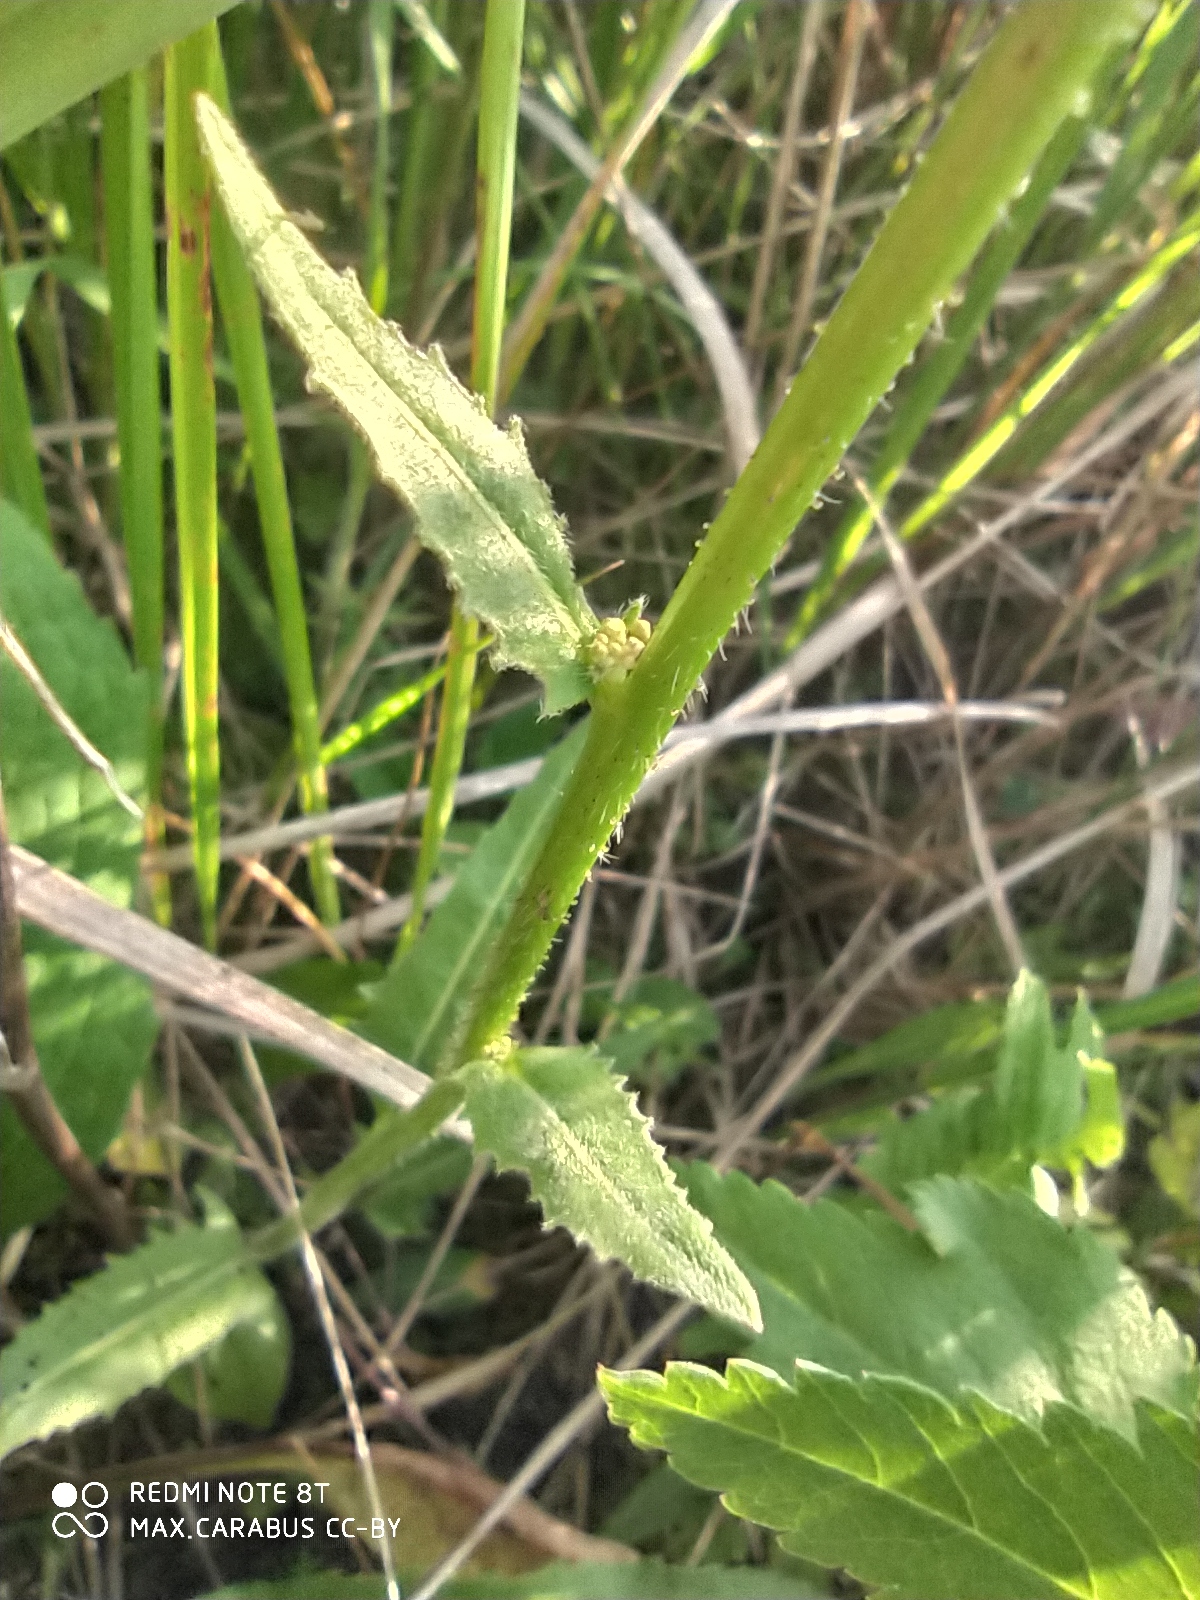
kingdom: Plantae
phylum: Tracheophyta
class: Magnoliopsida
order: Brassicales
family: Brassicaceae
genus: Bunias
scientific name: Bunias orientalis
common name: Warty-cabbage
